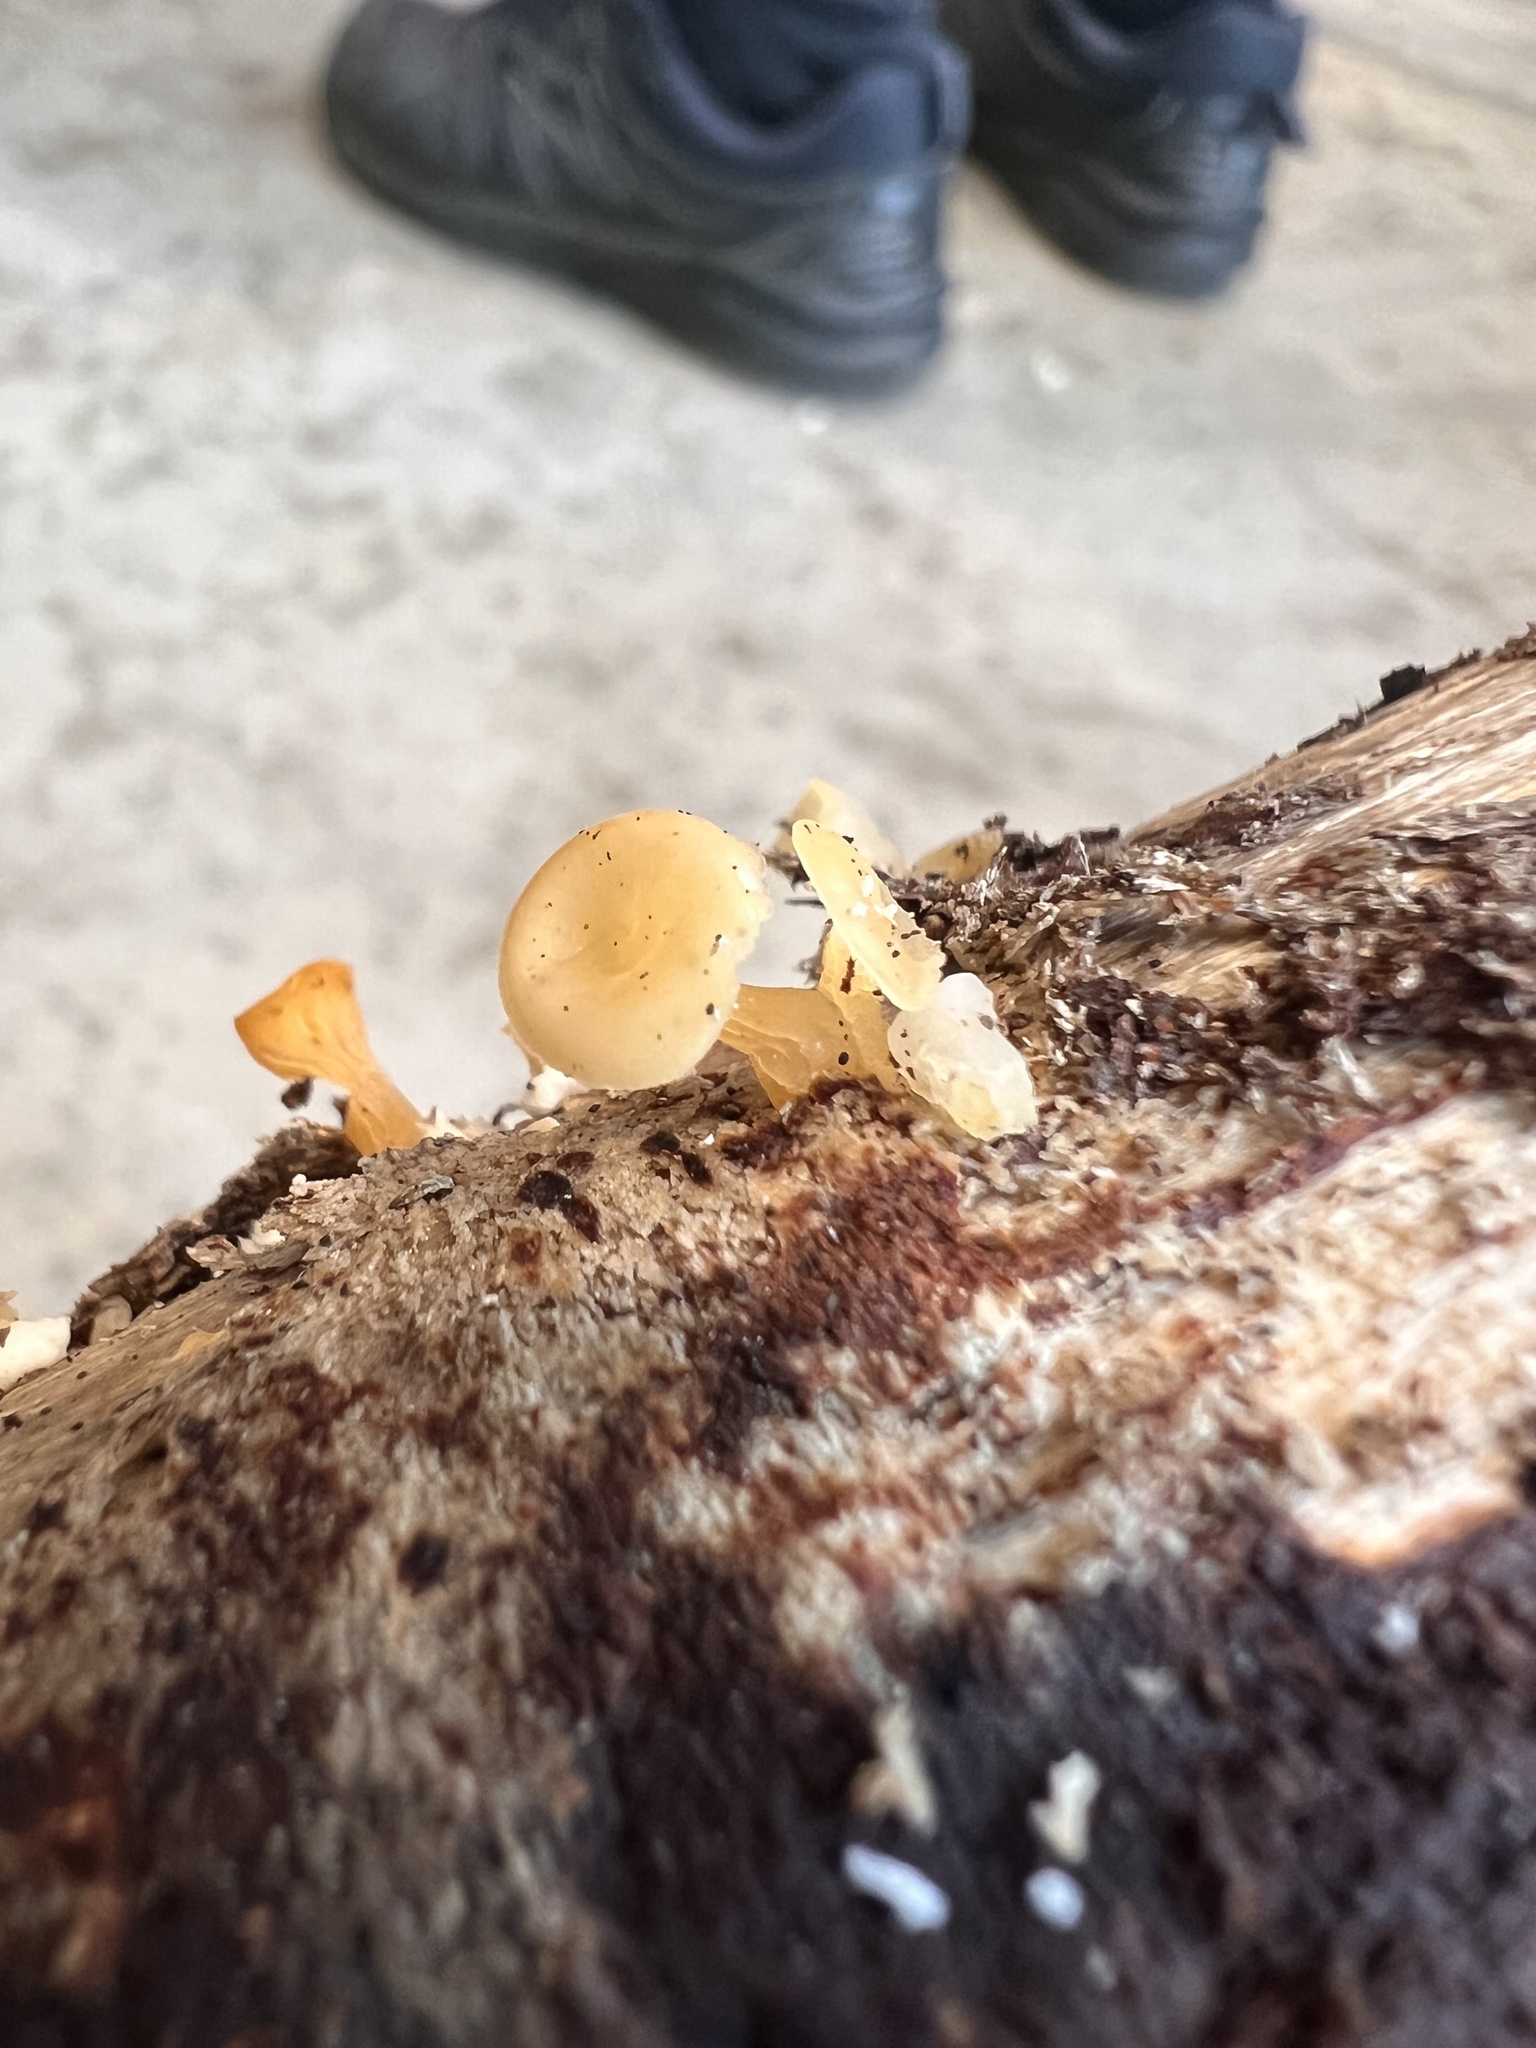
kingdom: Fungi
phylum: Basidiomycota
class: Dacrymycetes
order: Dacrymycetales
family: Dacrymycetaceae
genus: Guepiniopsis
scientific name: Guepiniopsis buccina
